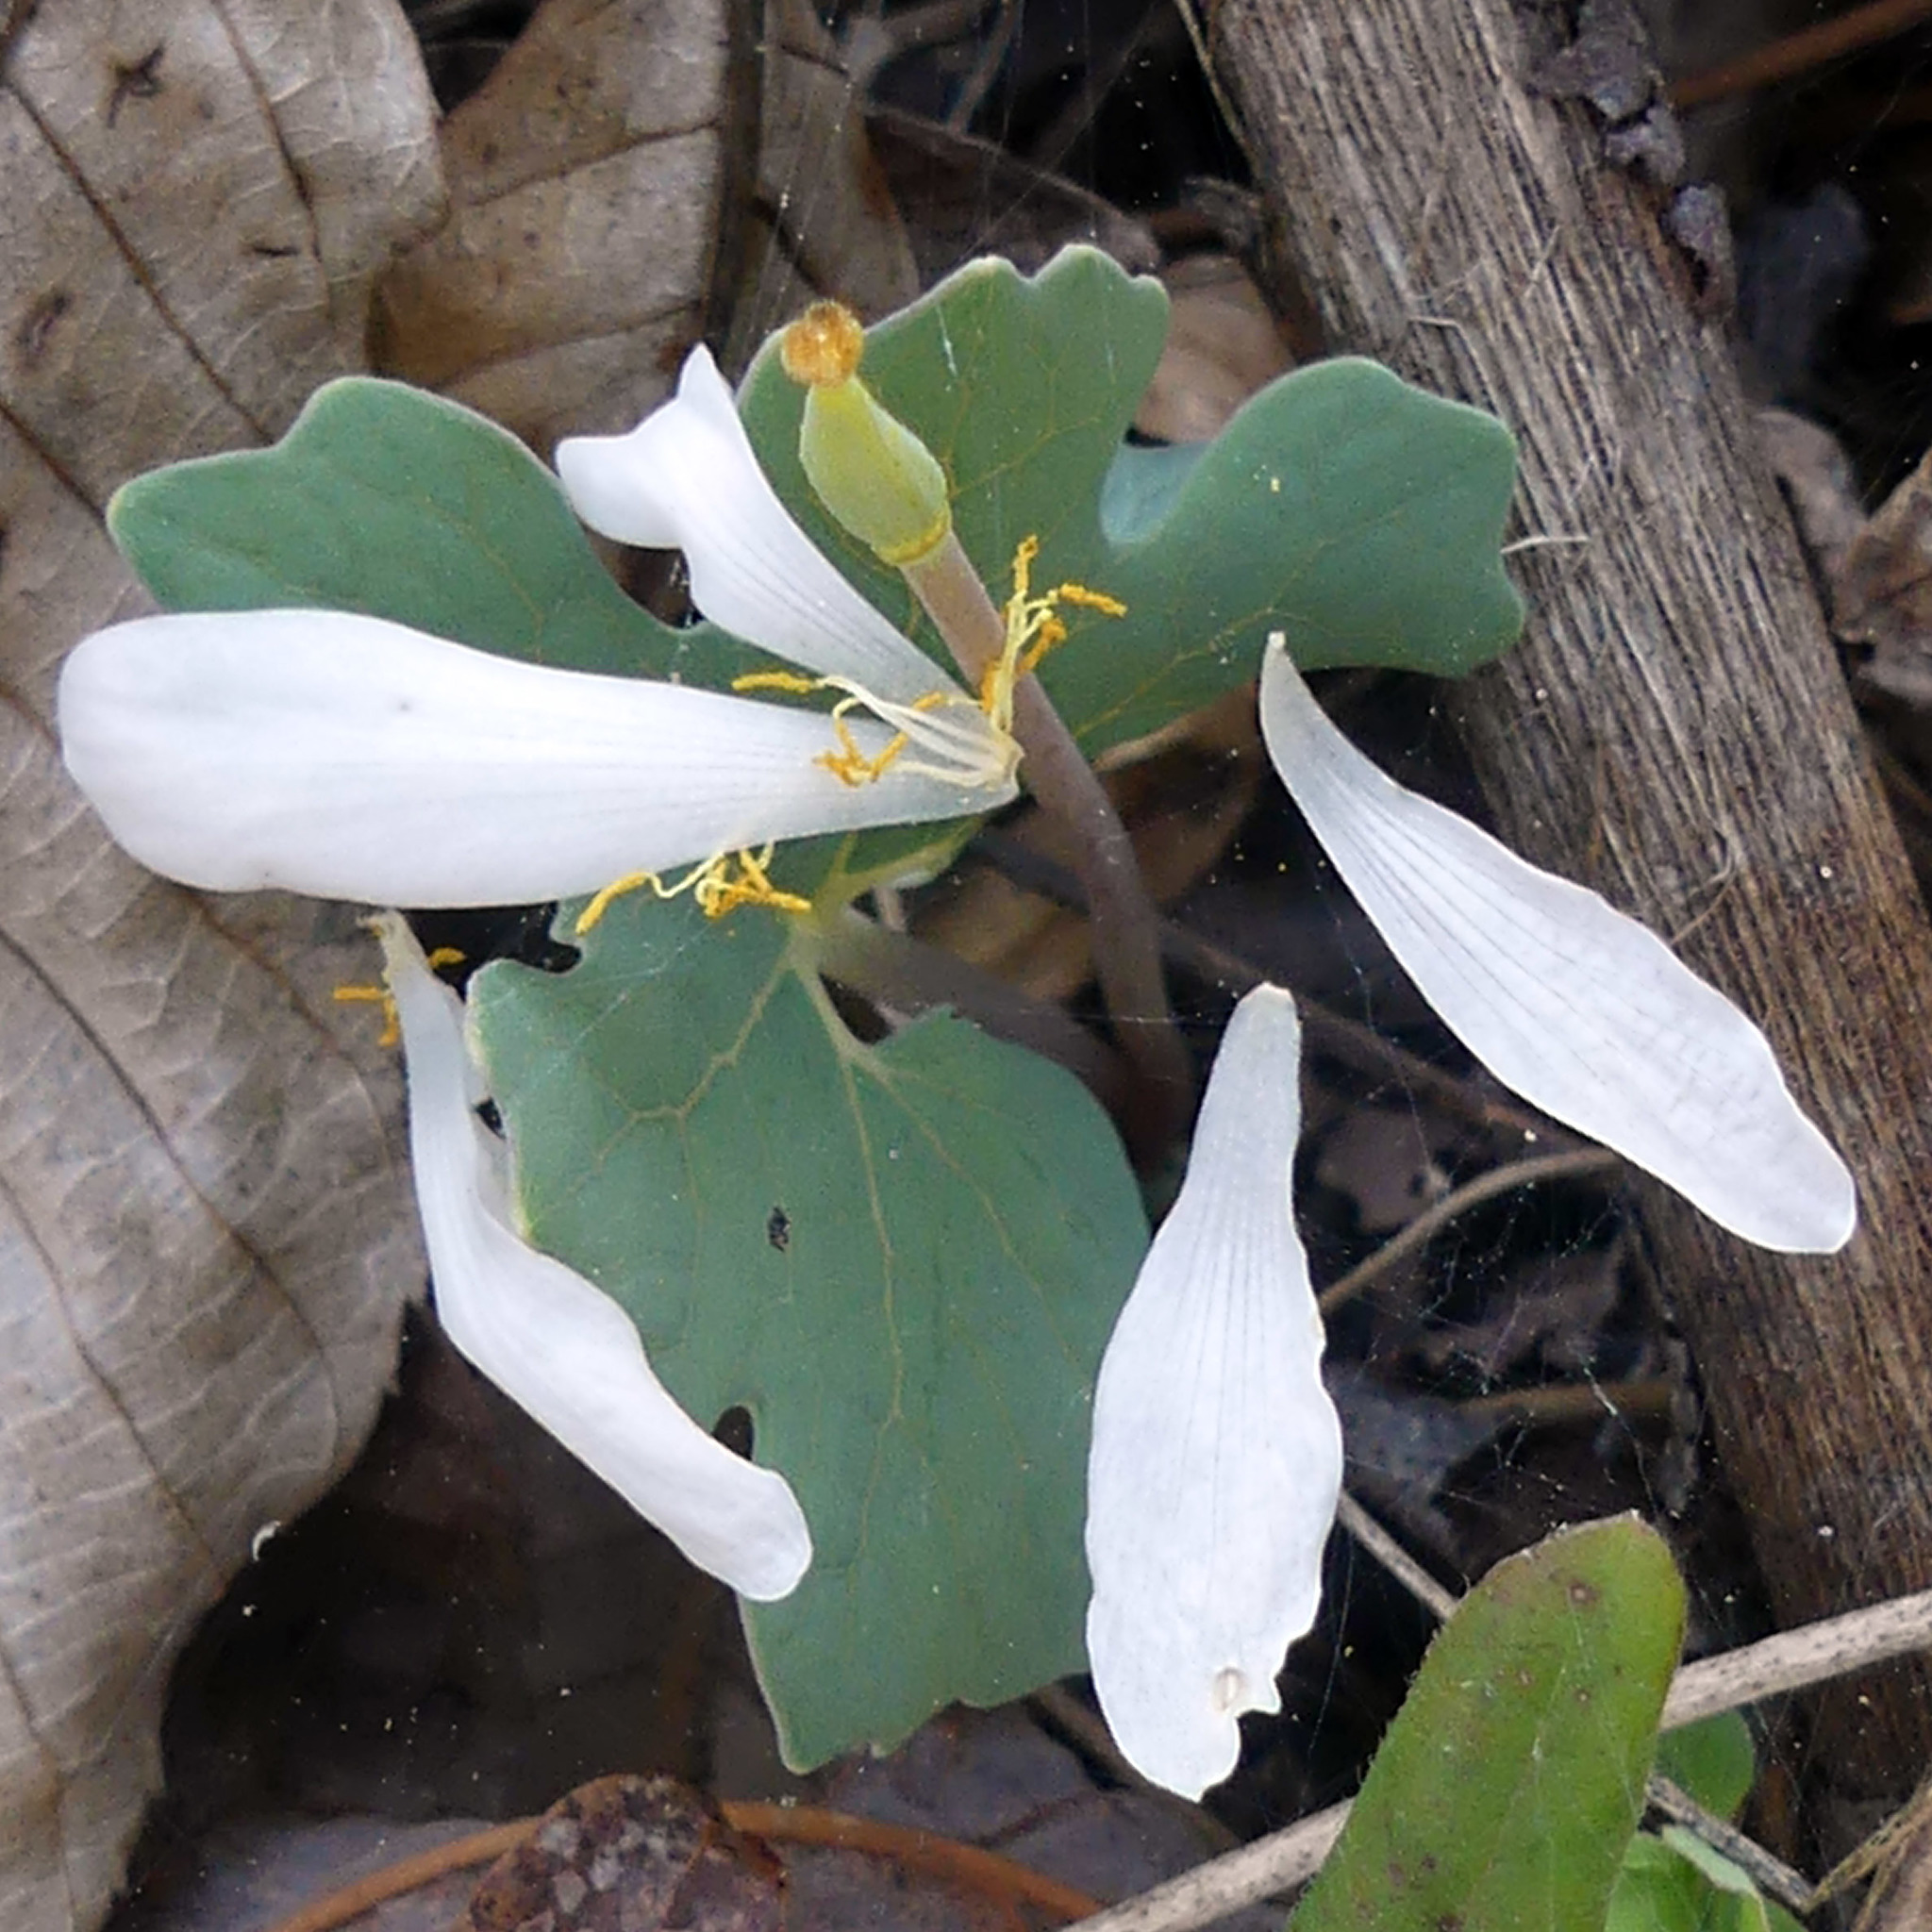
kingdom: Plantae
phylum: Tracheophyta
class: Magnoliopsida
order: Ranunculales
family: Papaveraceae
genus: Sanguinaria
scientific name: Sanguinaria canadensis
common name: Bloodroot
